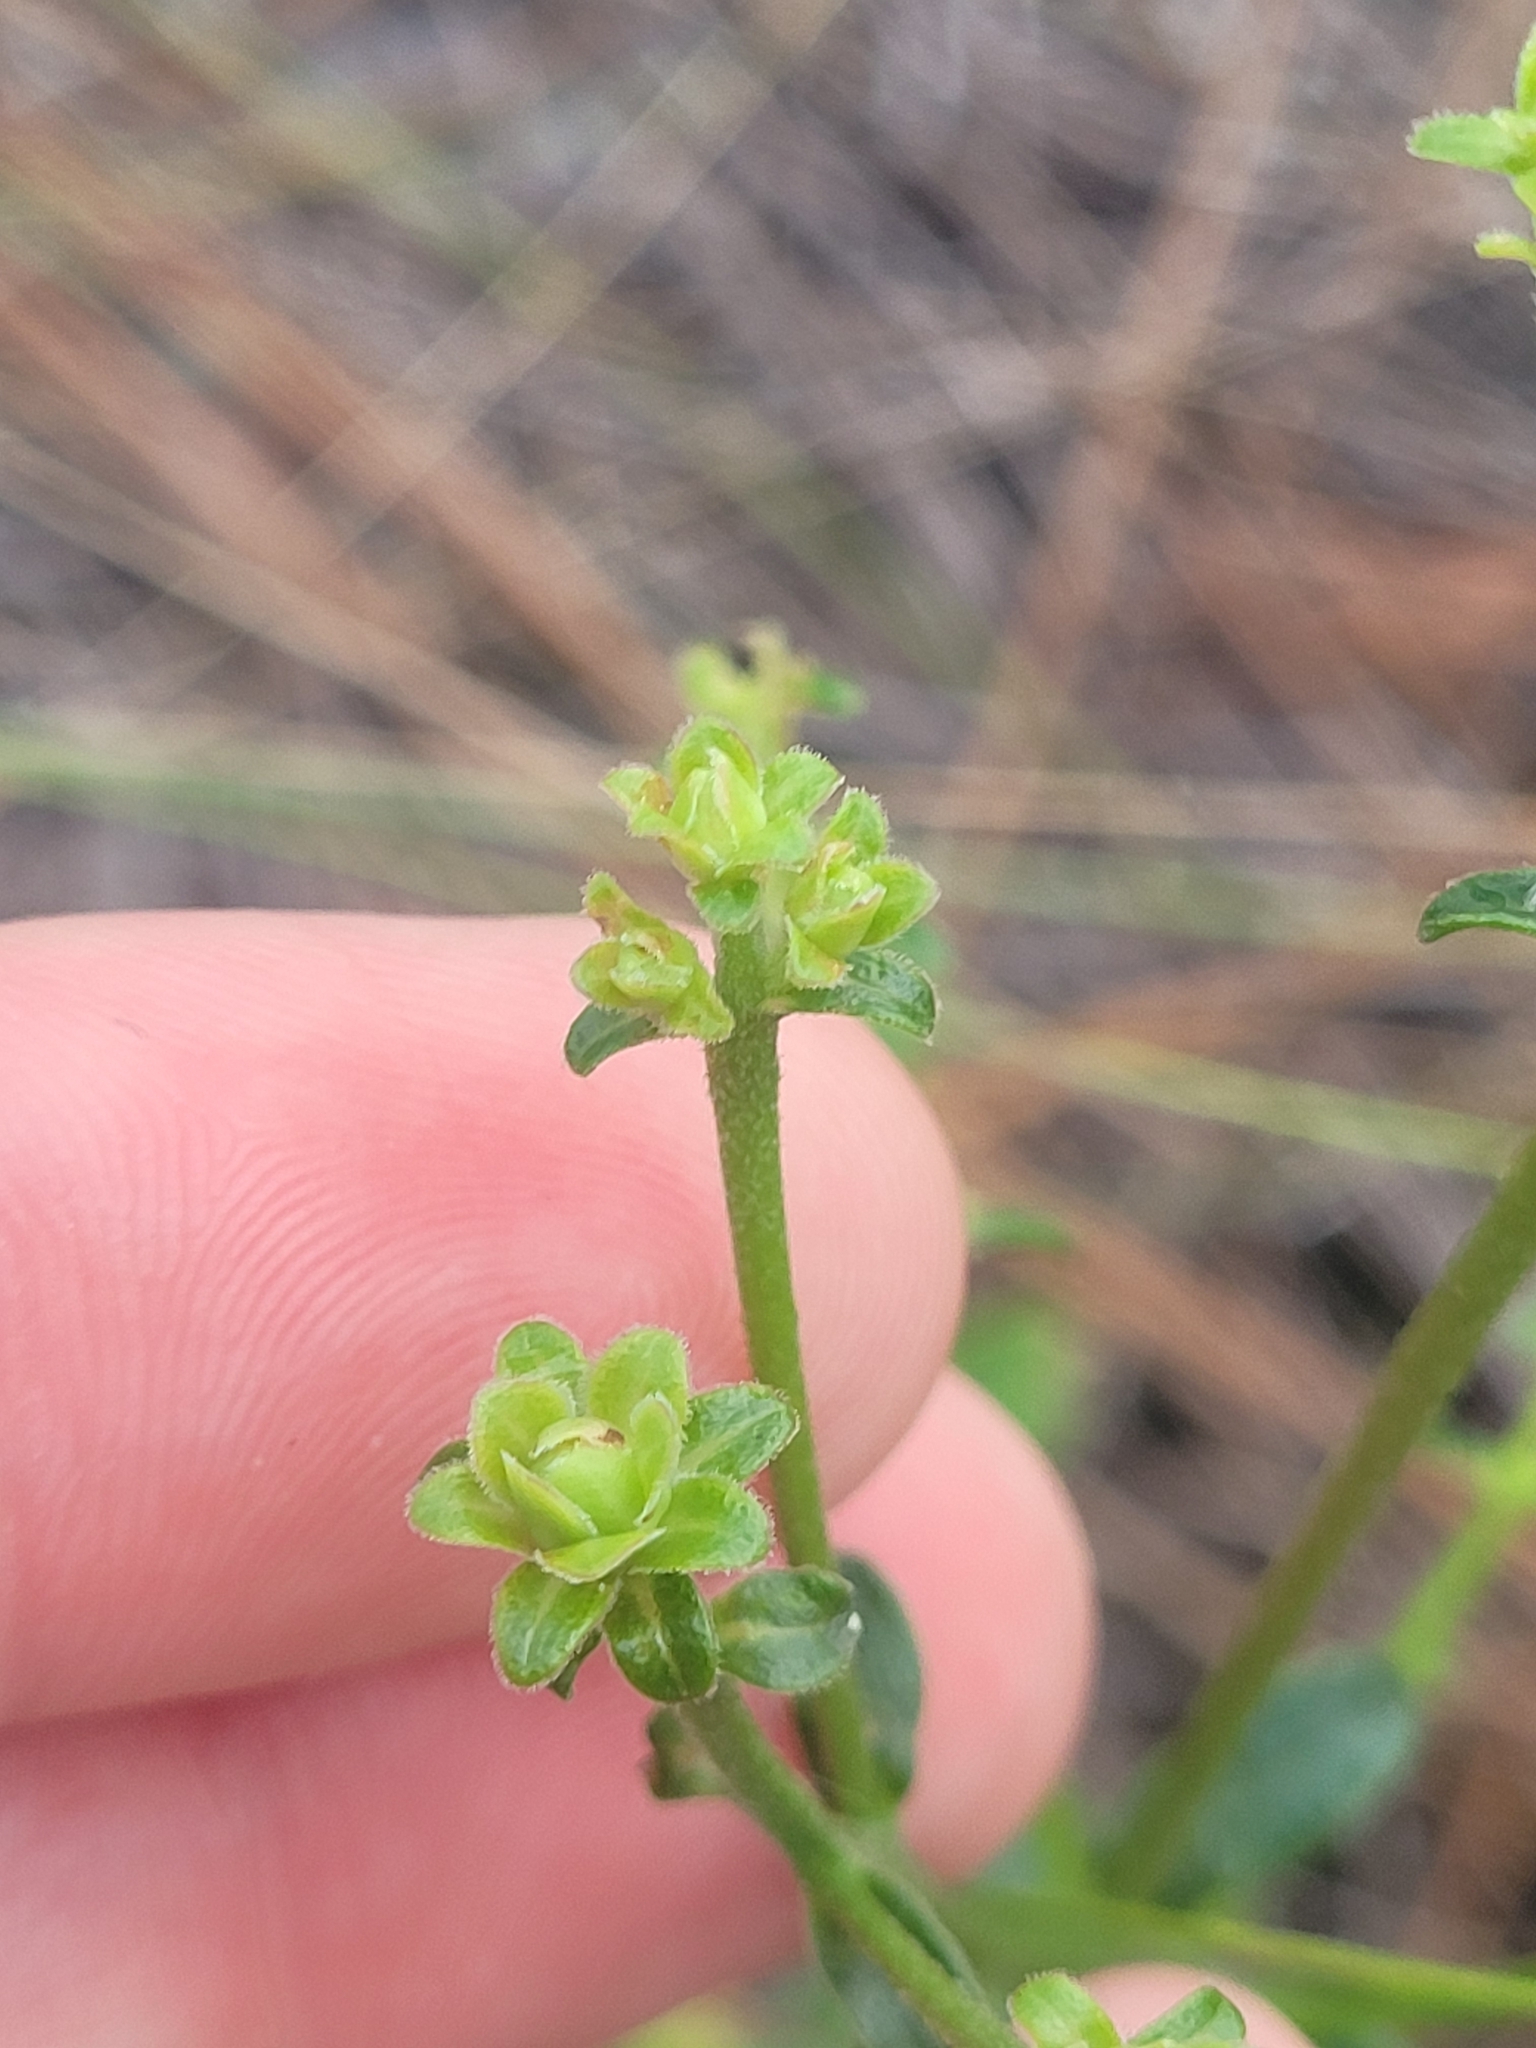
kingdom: Plantae
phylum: Tracheophyta
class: Magnoliopsida
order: Asterales
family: Asteraceae
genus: Carphephorus
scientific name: Carphephorus bellidifolius
